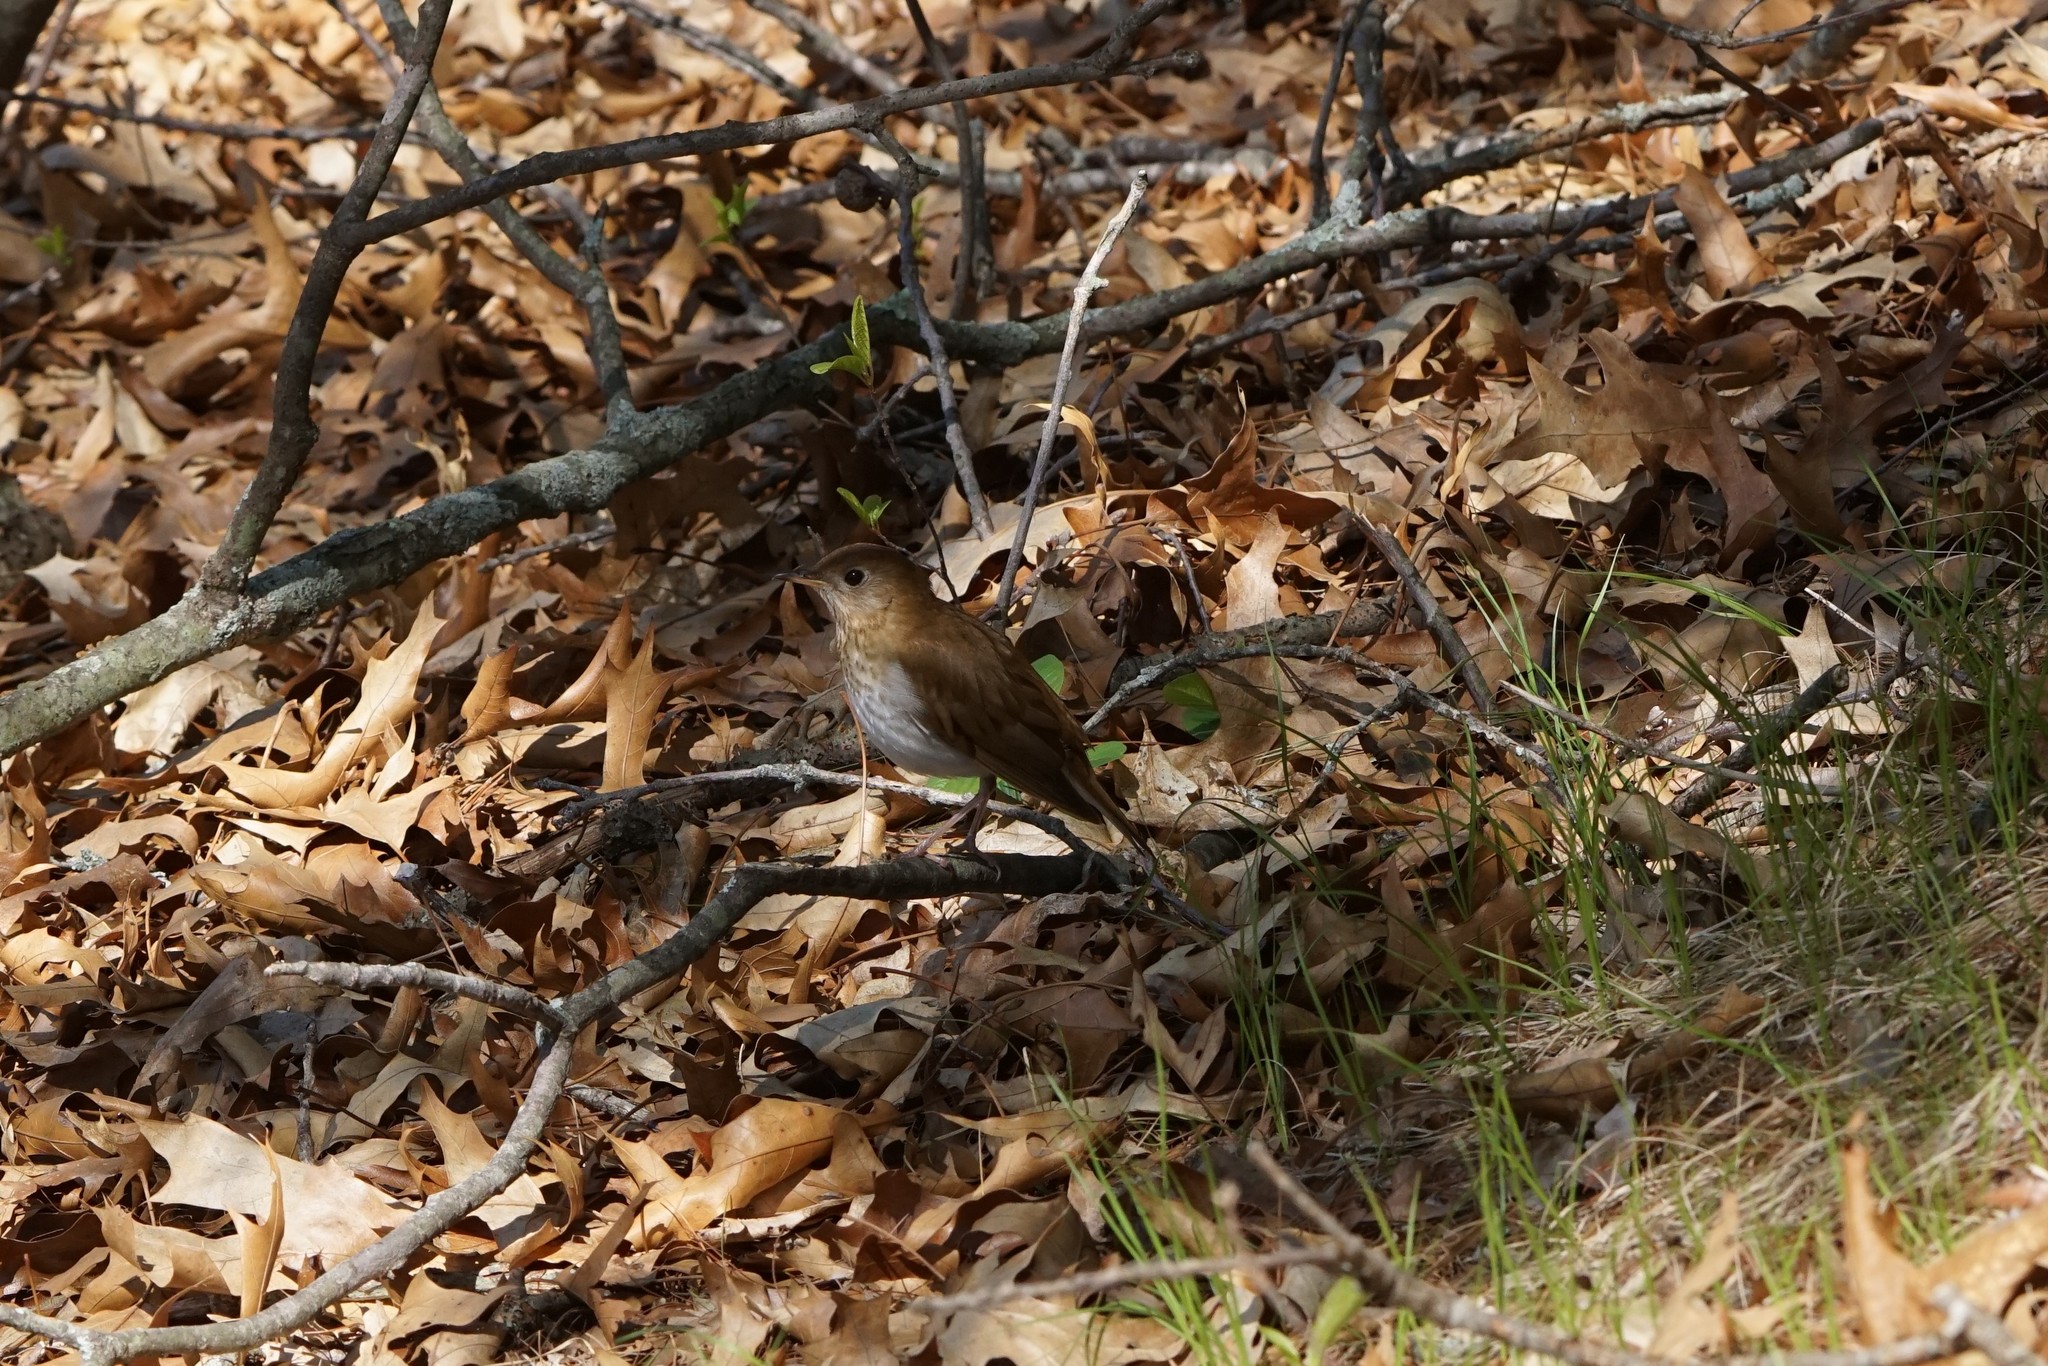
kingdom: Animalia
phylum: Chordata
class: Aves
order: Passeriformes
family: Turdidae
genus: Catharus
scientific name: Catharus fuscescens
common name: Veery
